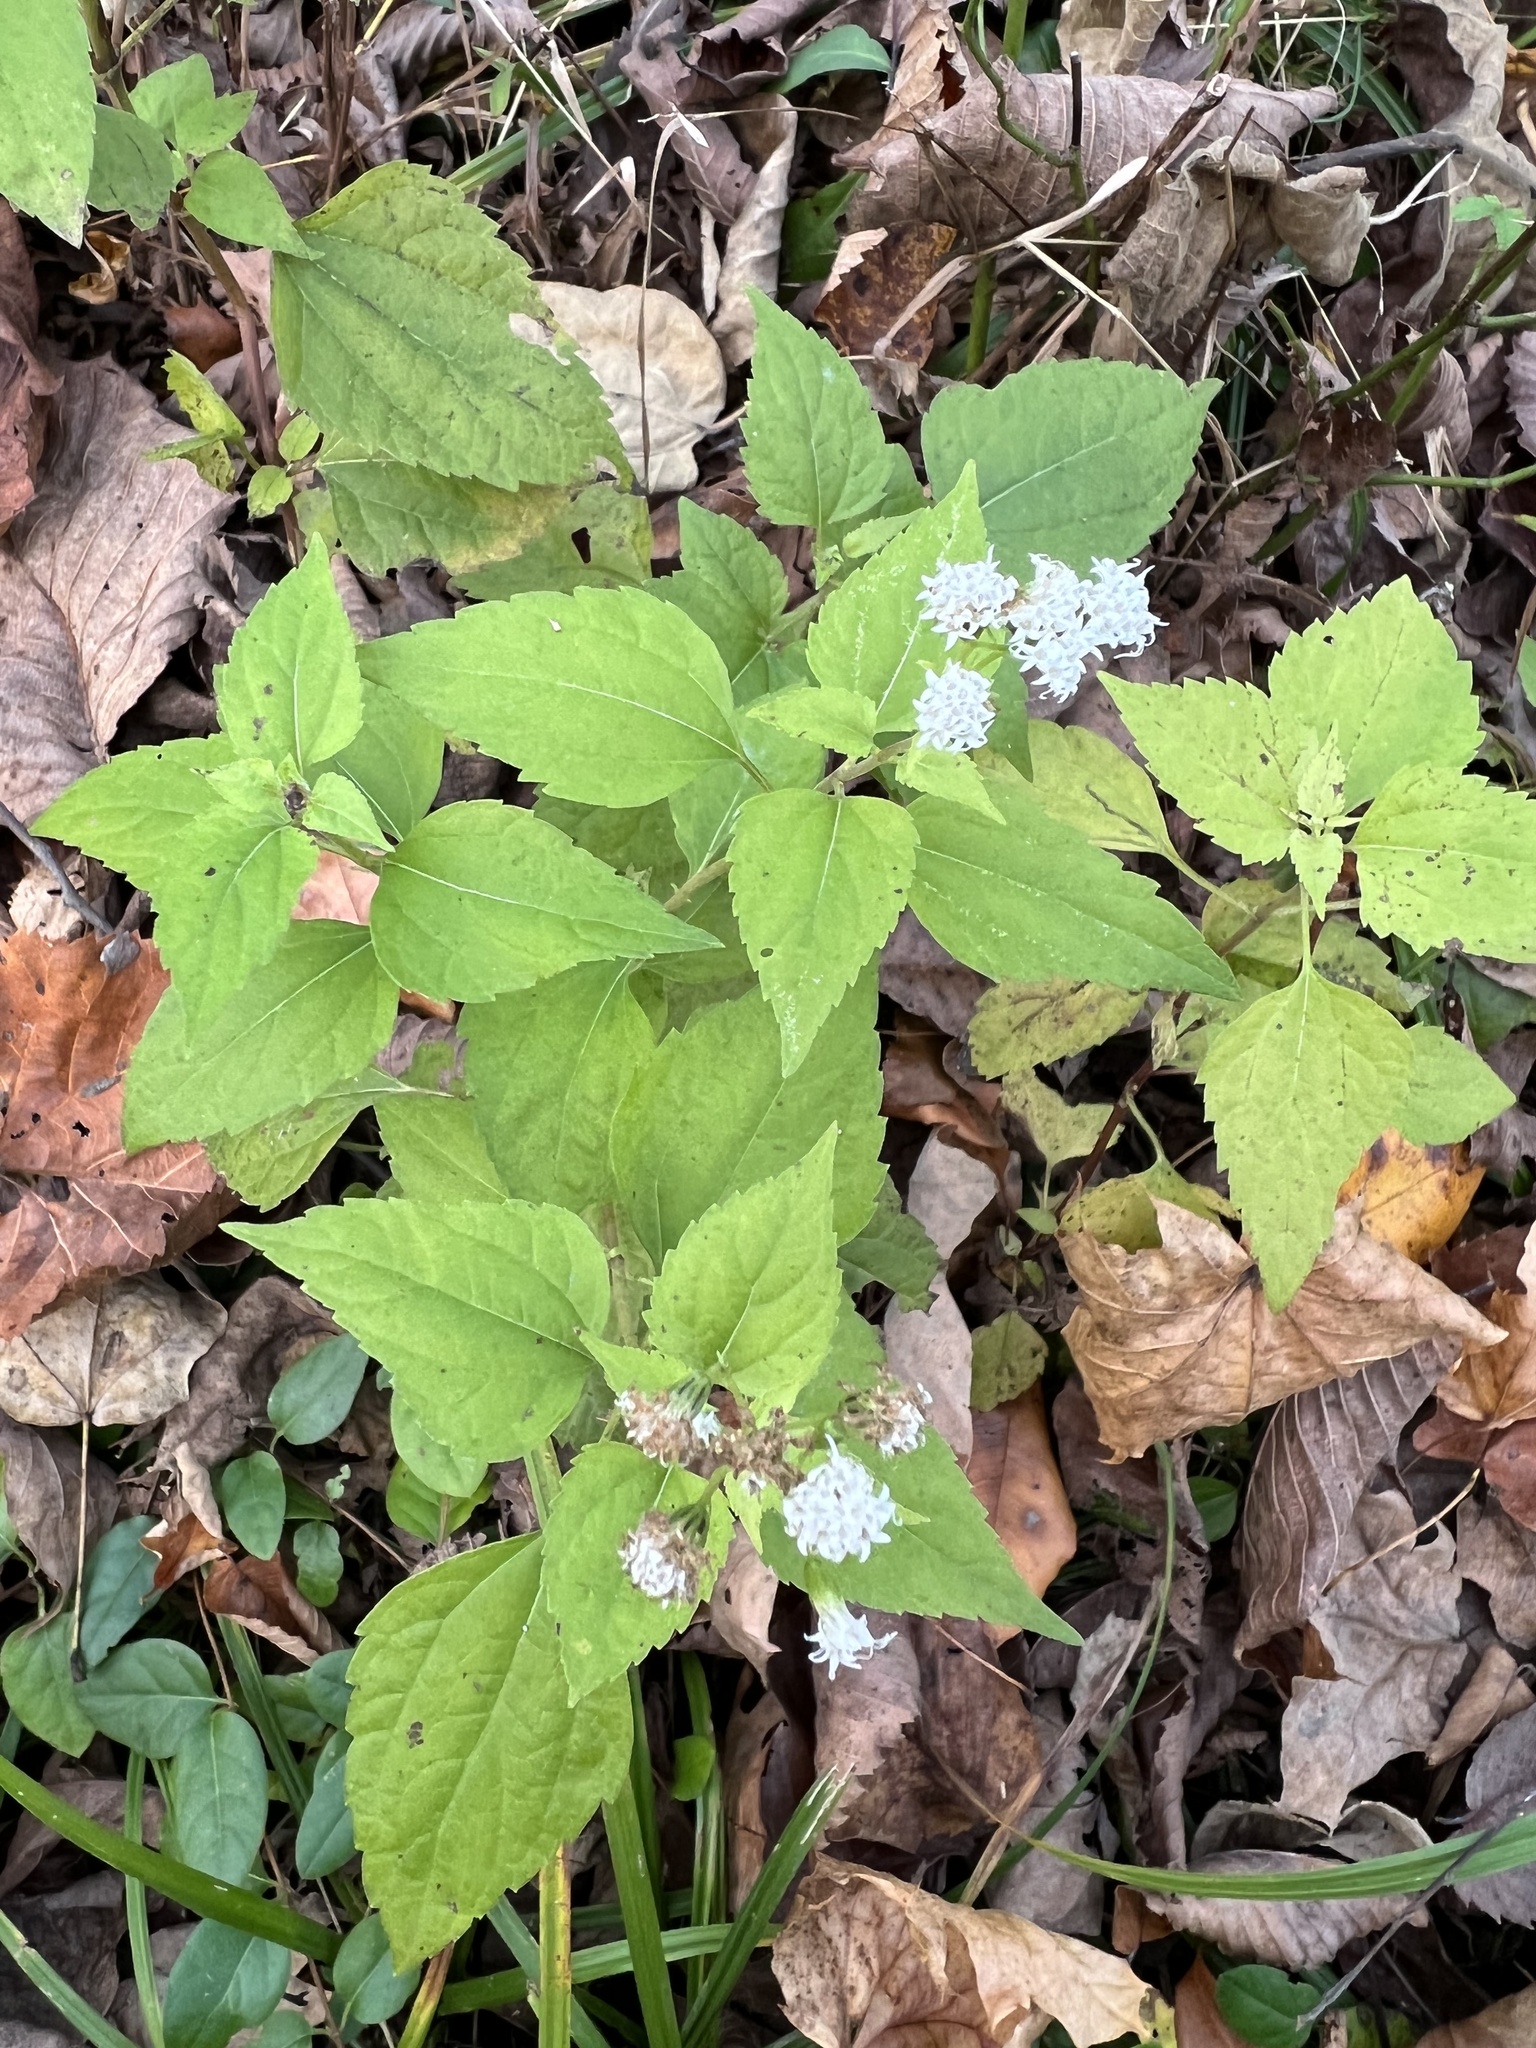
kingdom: Plantae
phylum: Tracheophyta
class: Magnoliopsida
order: Asterales
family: Asteraceae
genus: Ageratina
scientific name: Ageratina altissima
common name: White snakeroot
